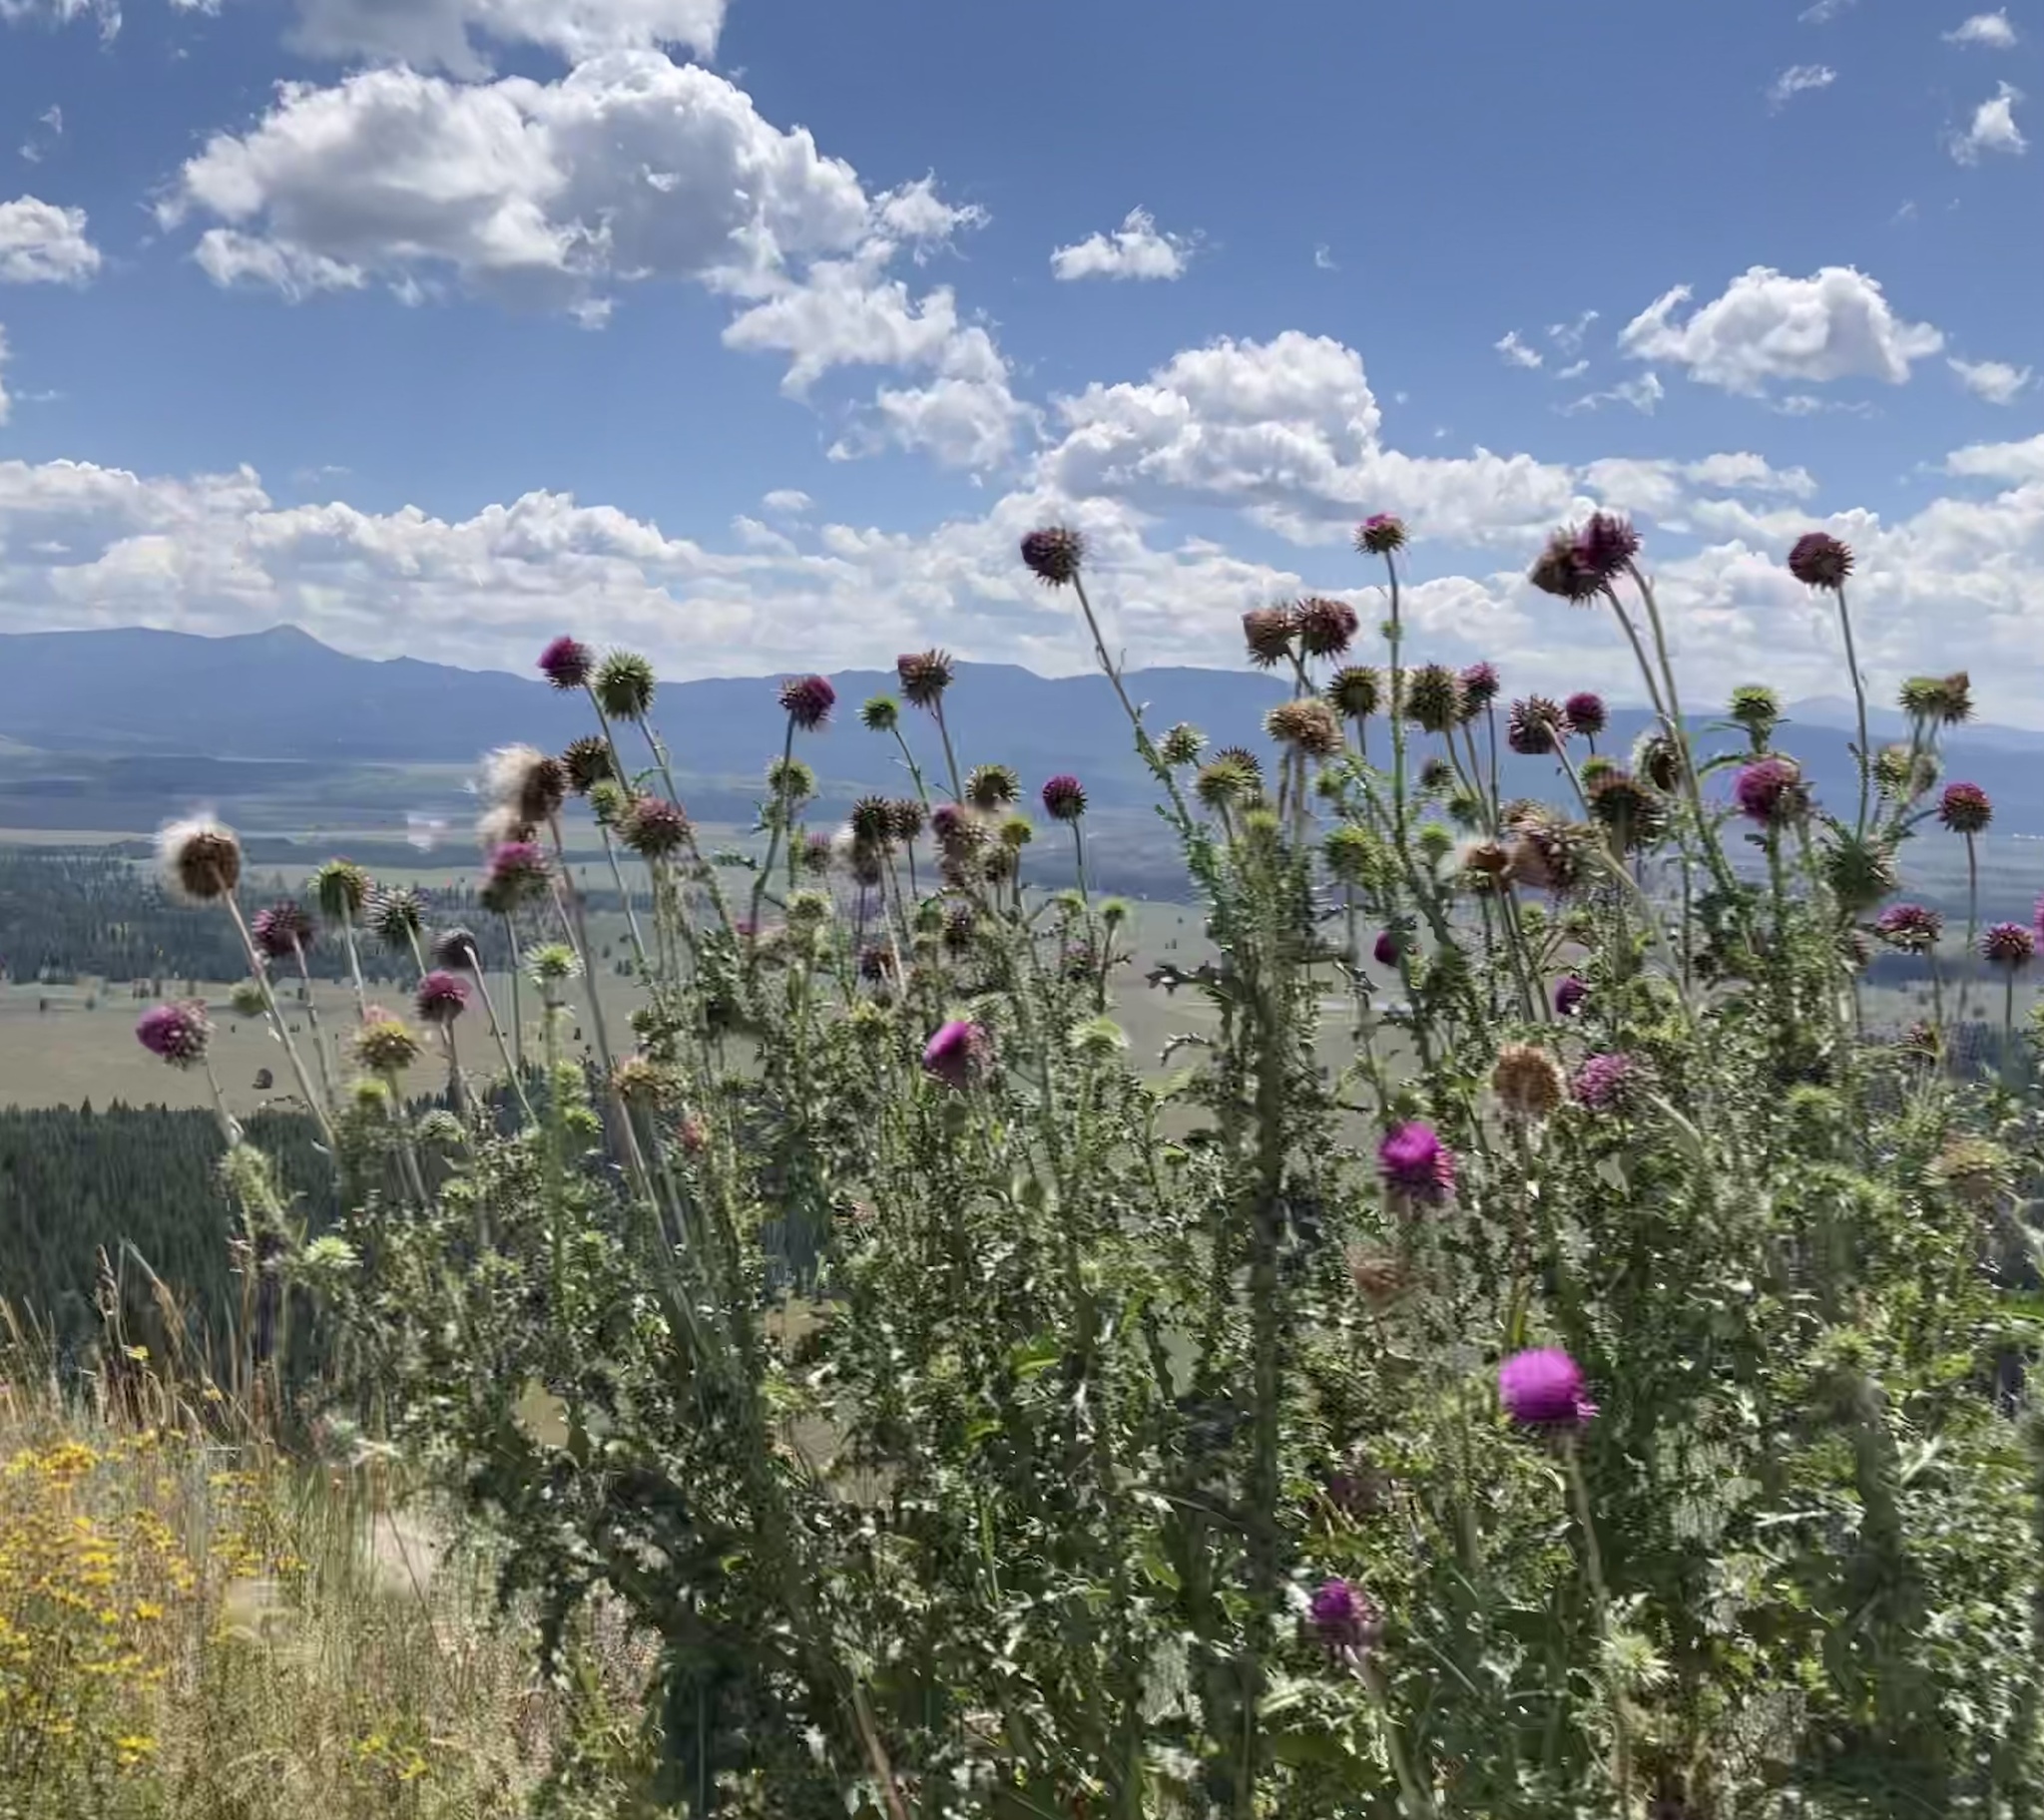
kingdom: Plantae
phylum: Tracheophyta
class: Magnoliopsida
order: Asterales
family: Asteraceae
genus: Carduus
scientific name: Carduus nutans
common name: Musk thistle
